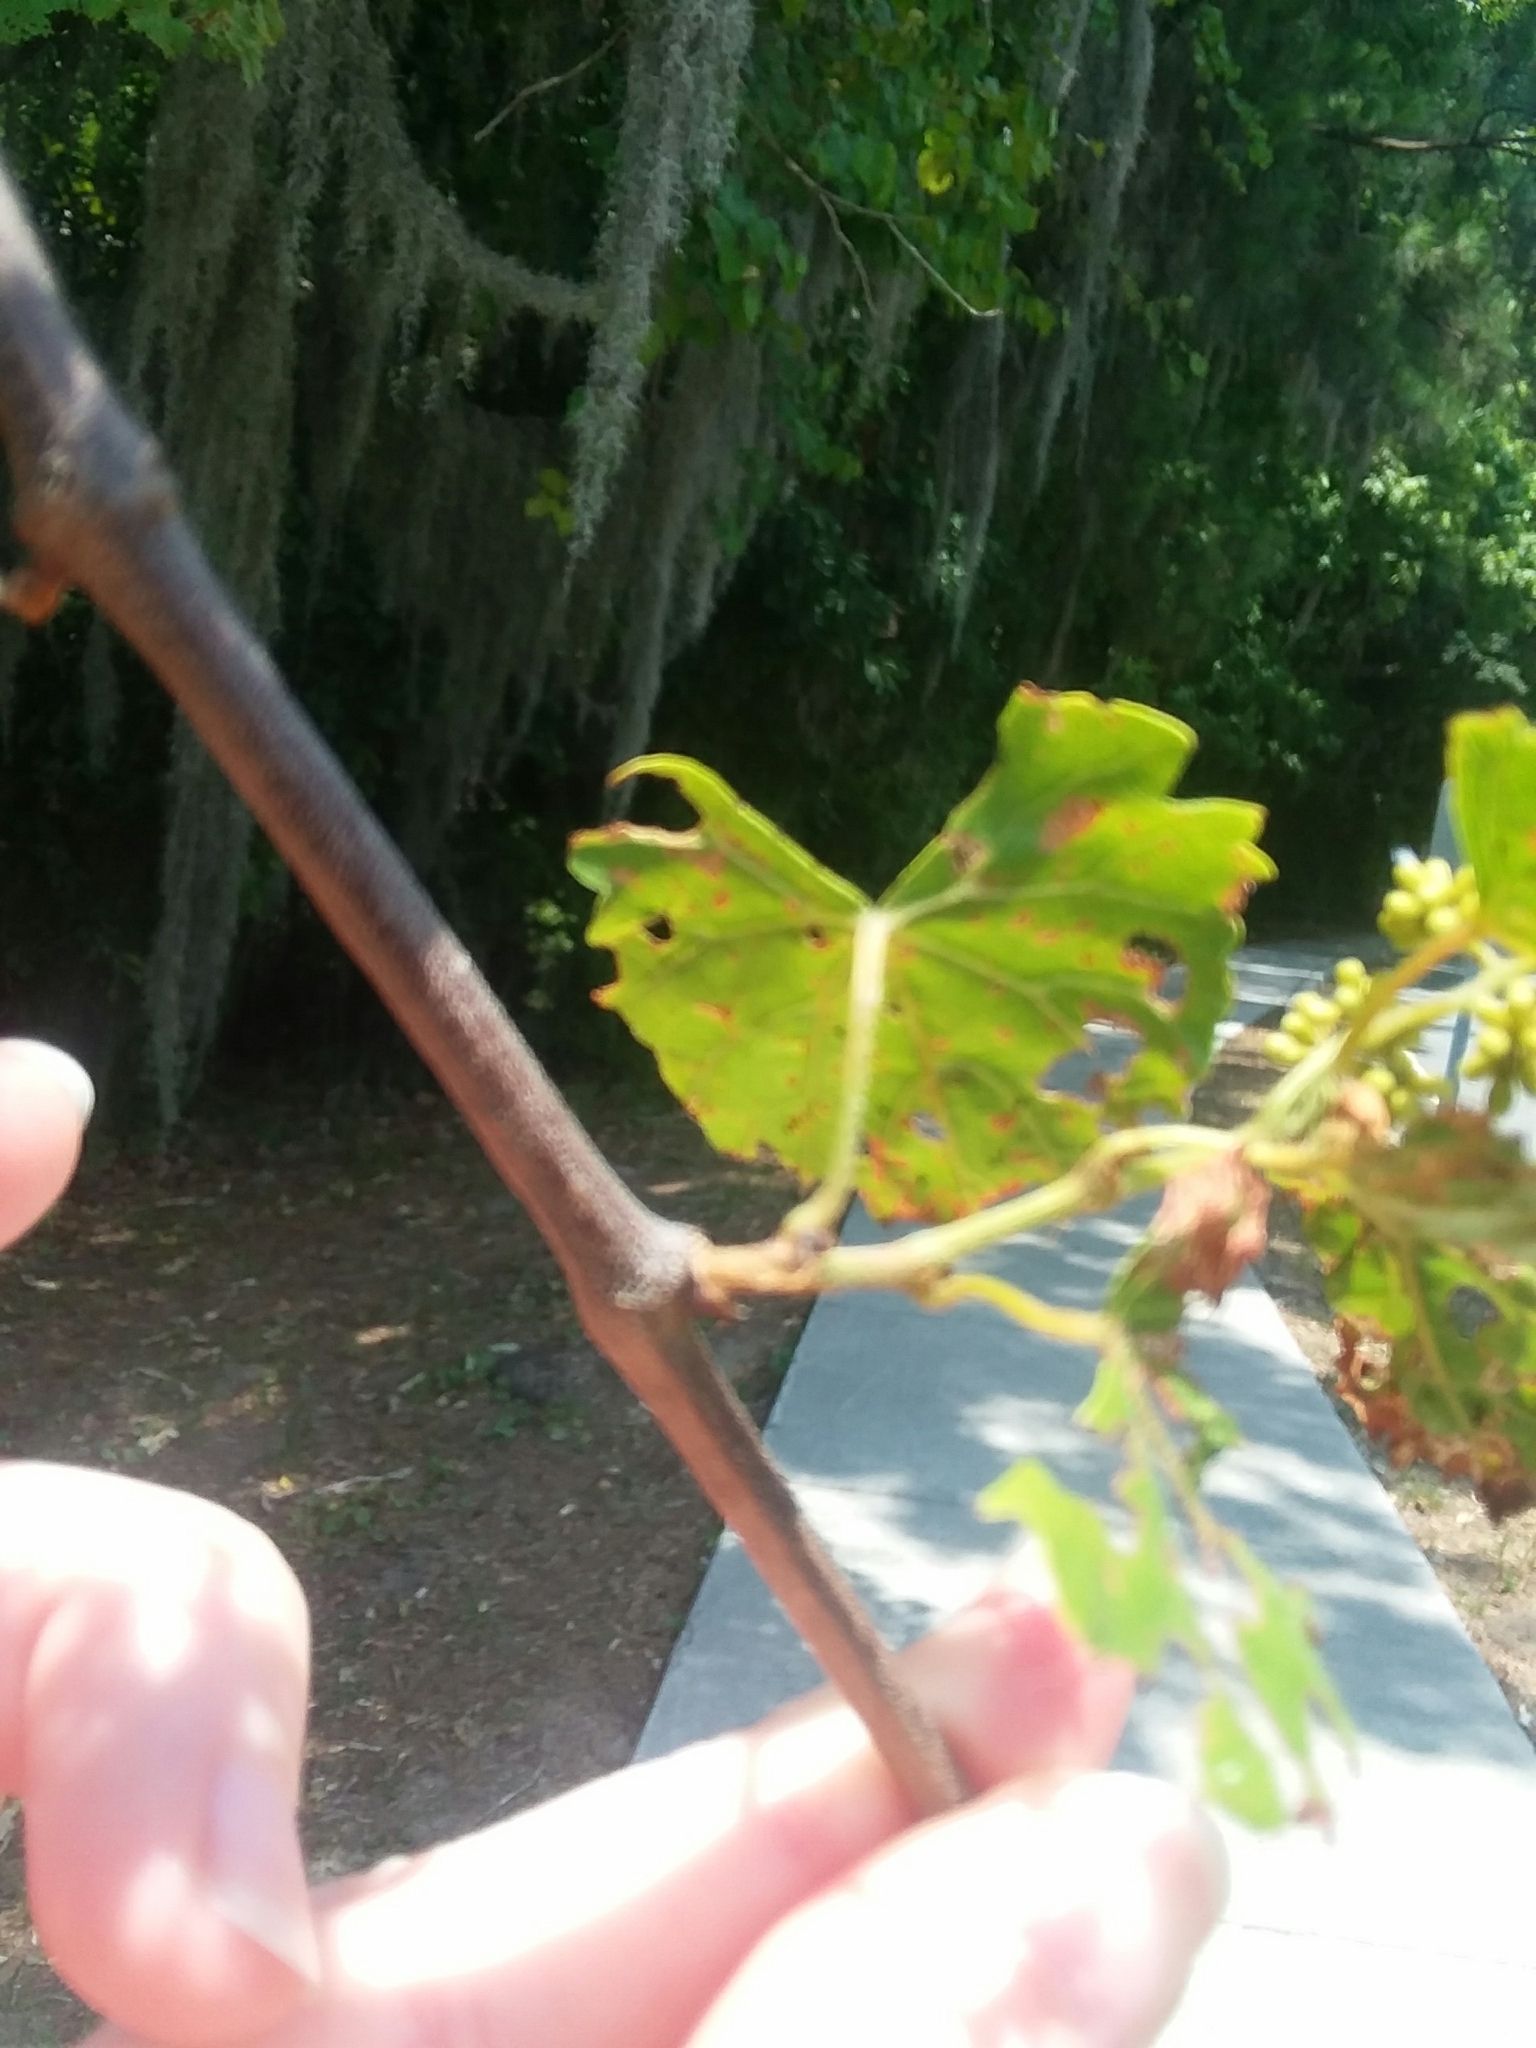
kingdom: Plantae
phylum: Tracheophyta
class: Magnoliopsida
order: Vitales
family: Vitaceae
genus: Vitis
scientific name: Vitis rotundifolia
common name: Muscadine grape
